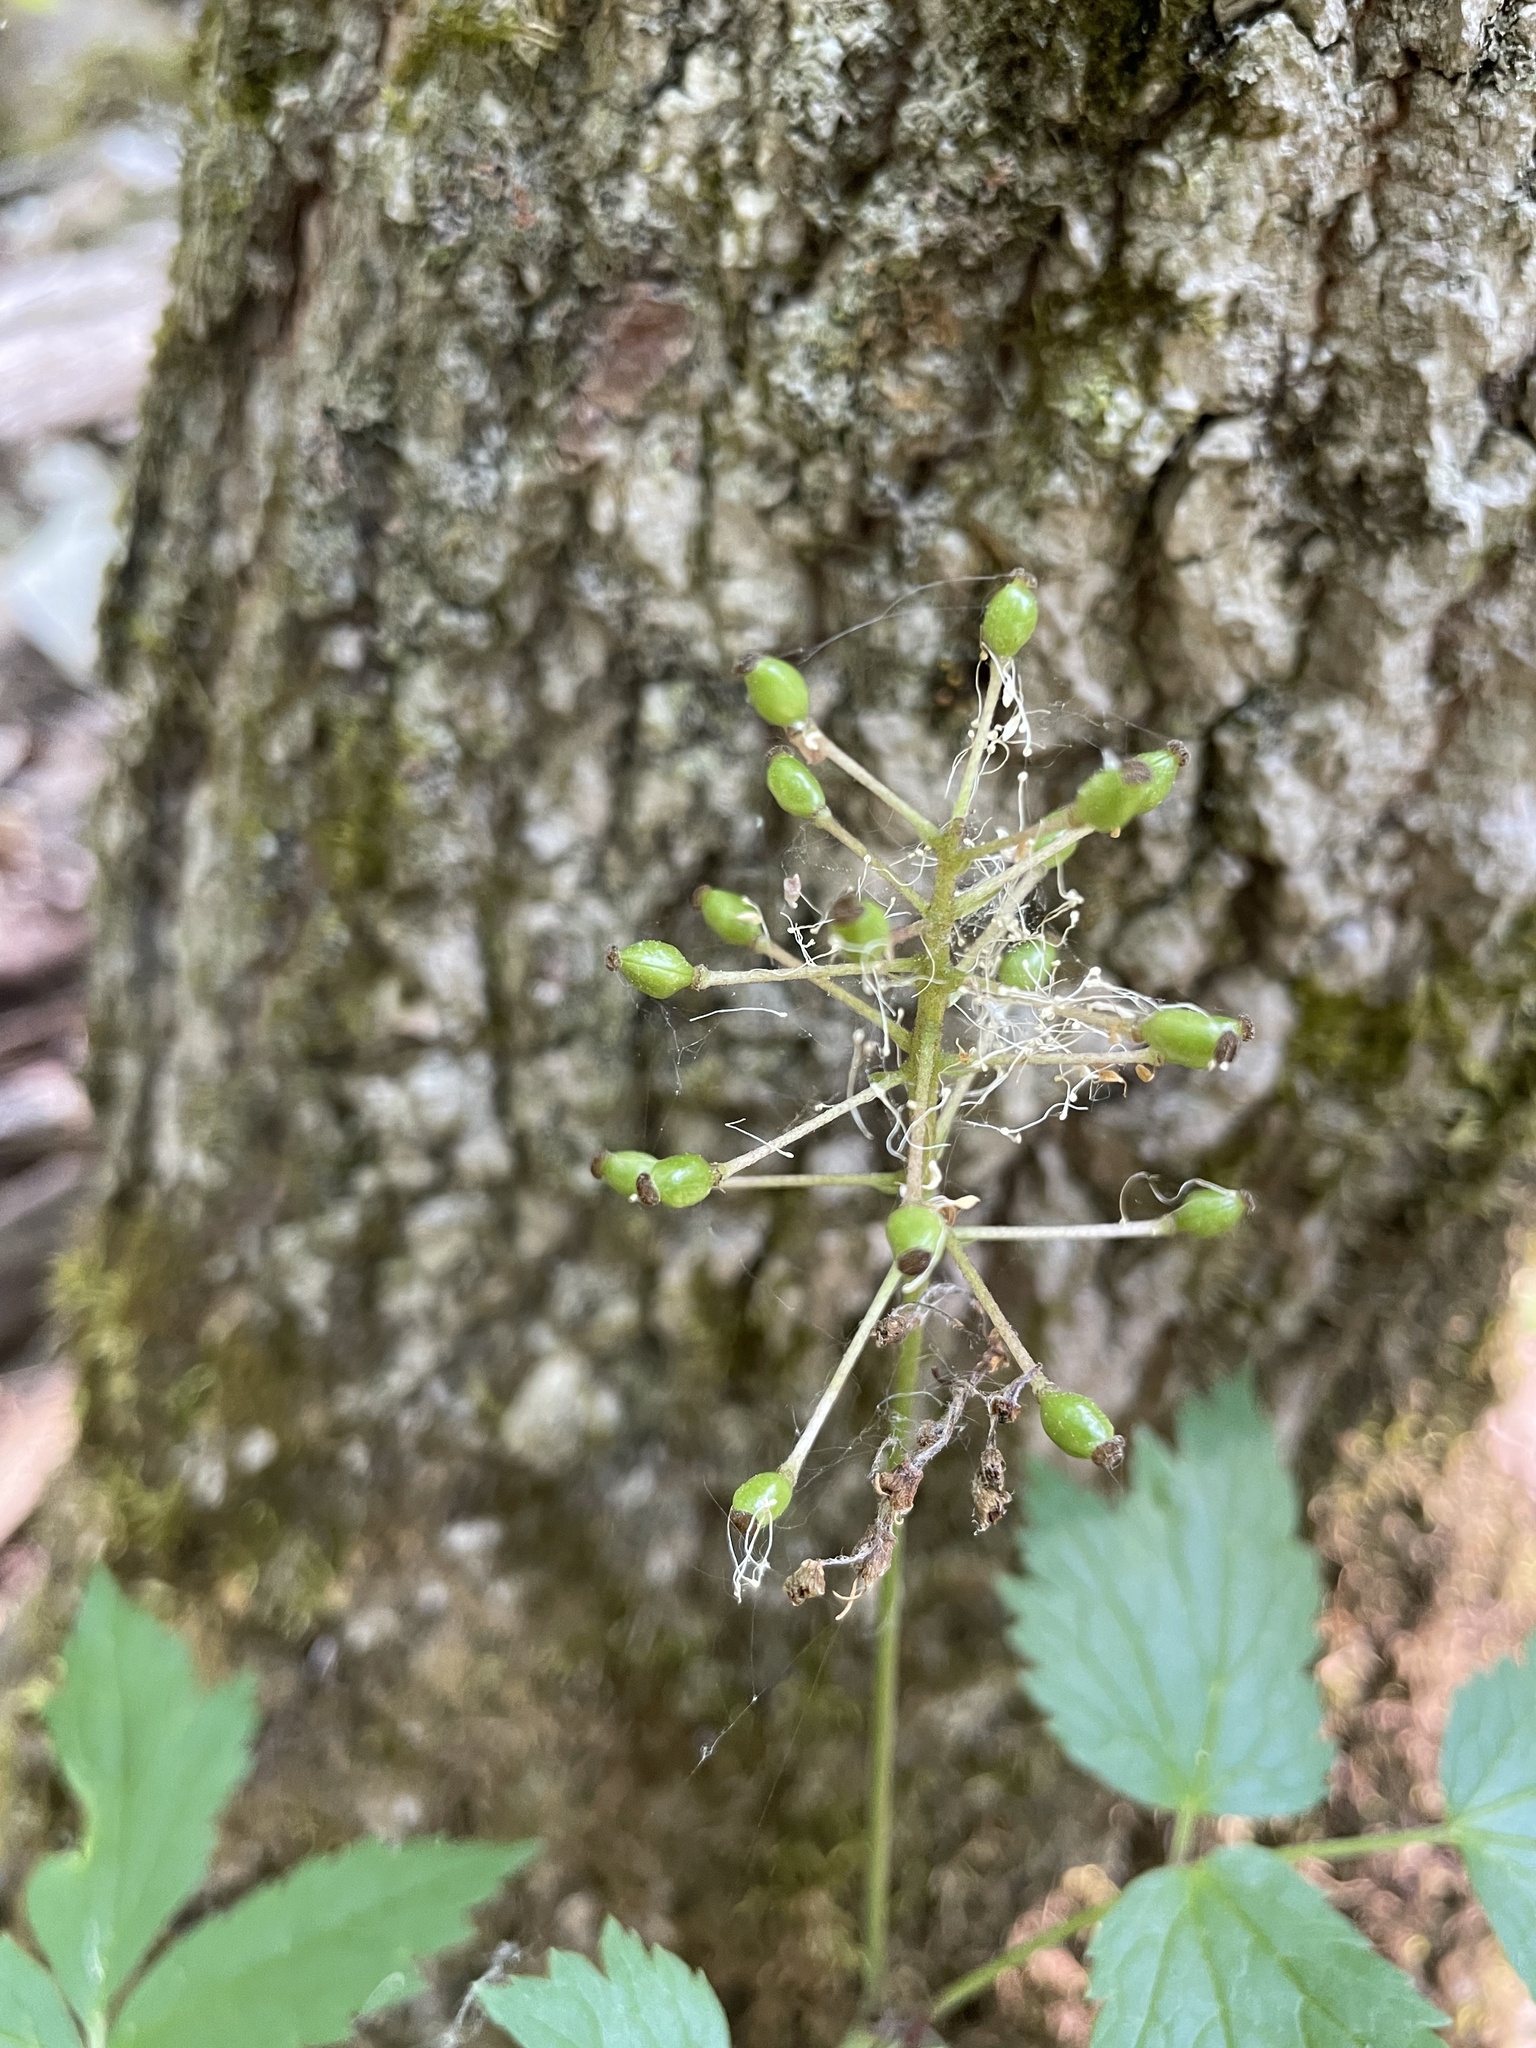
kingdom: Plantae
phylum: Tracheophyta
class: Magnoliopsida
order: Ranunculales
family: Ranunculaceae
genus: Actaea
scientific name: Actaea rubra
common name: Red baneberry
